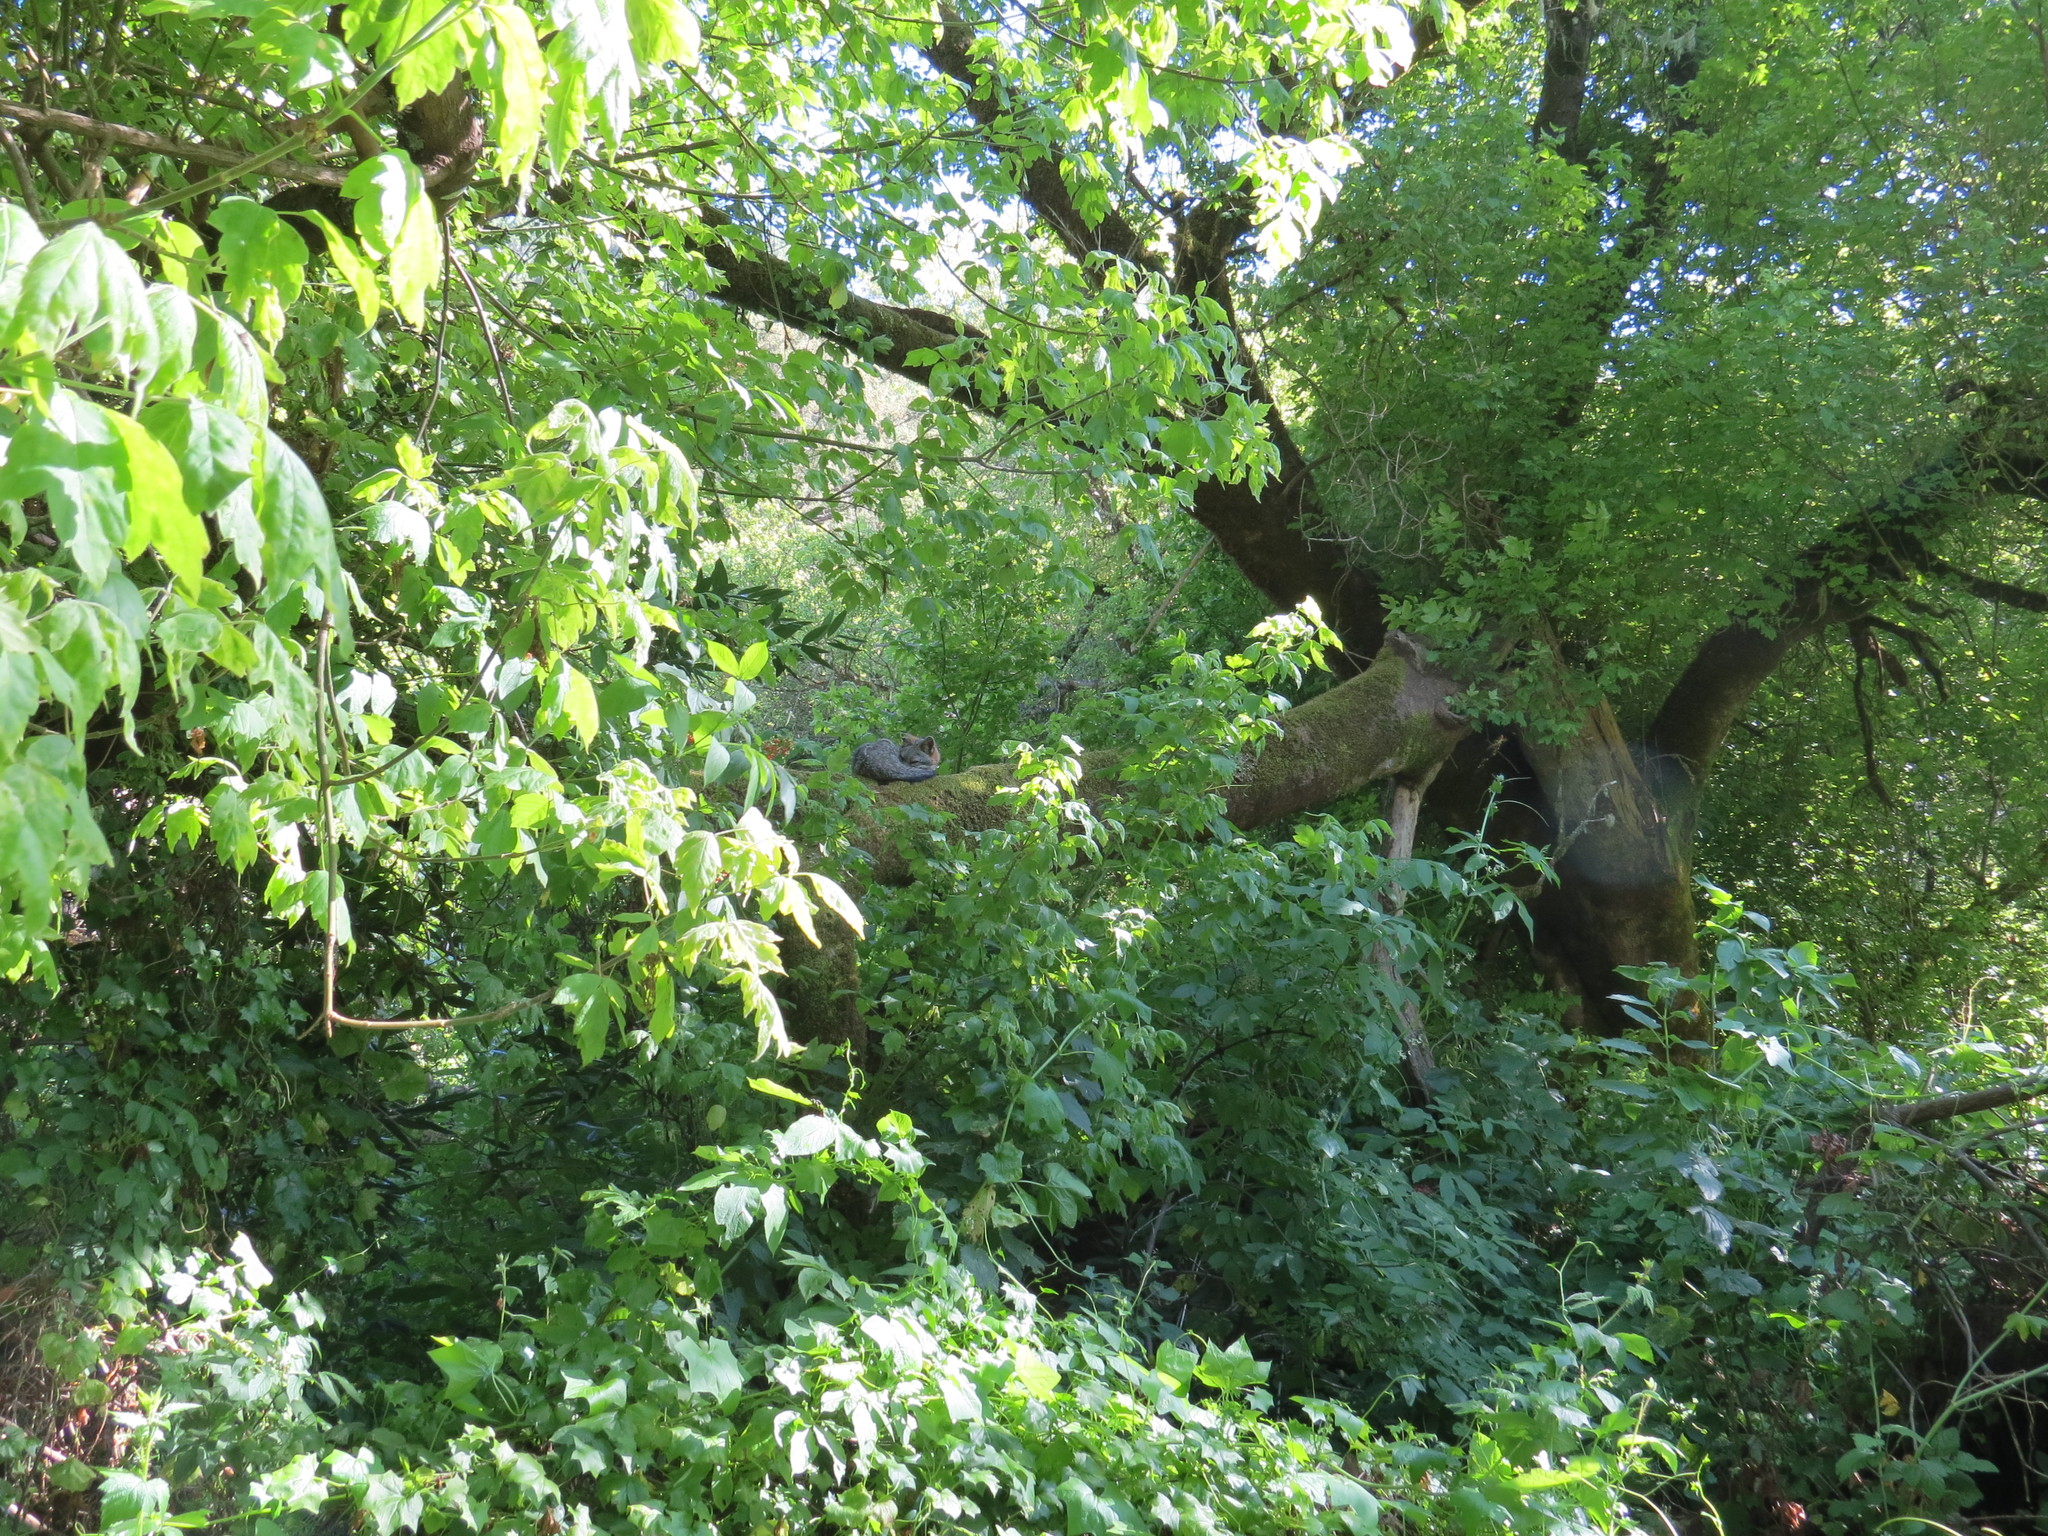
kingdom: Animalia
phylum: Chordata
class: Mammalia
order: Carnivora
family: Canidae
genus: Urocyon
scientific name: Urocyon cinereoargenteus
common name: Gray fox
